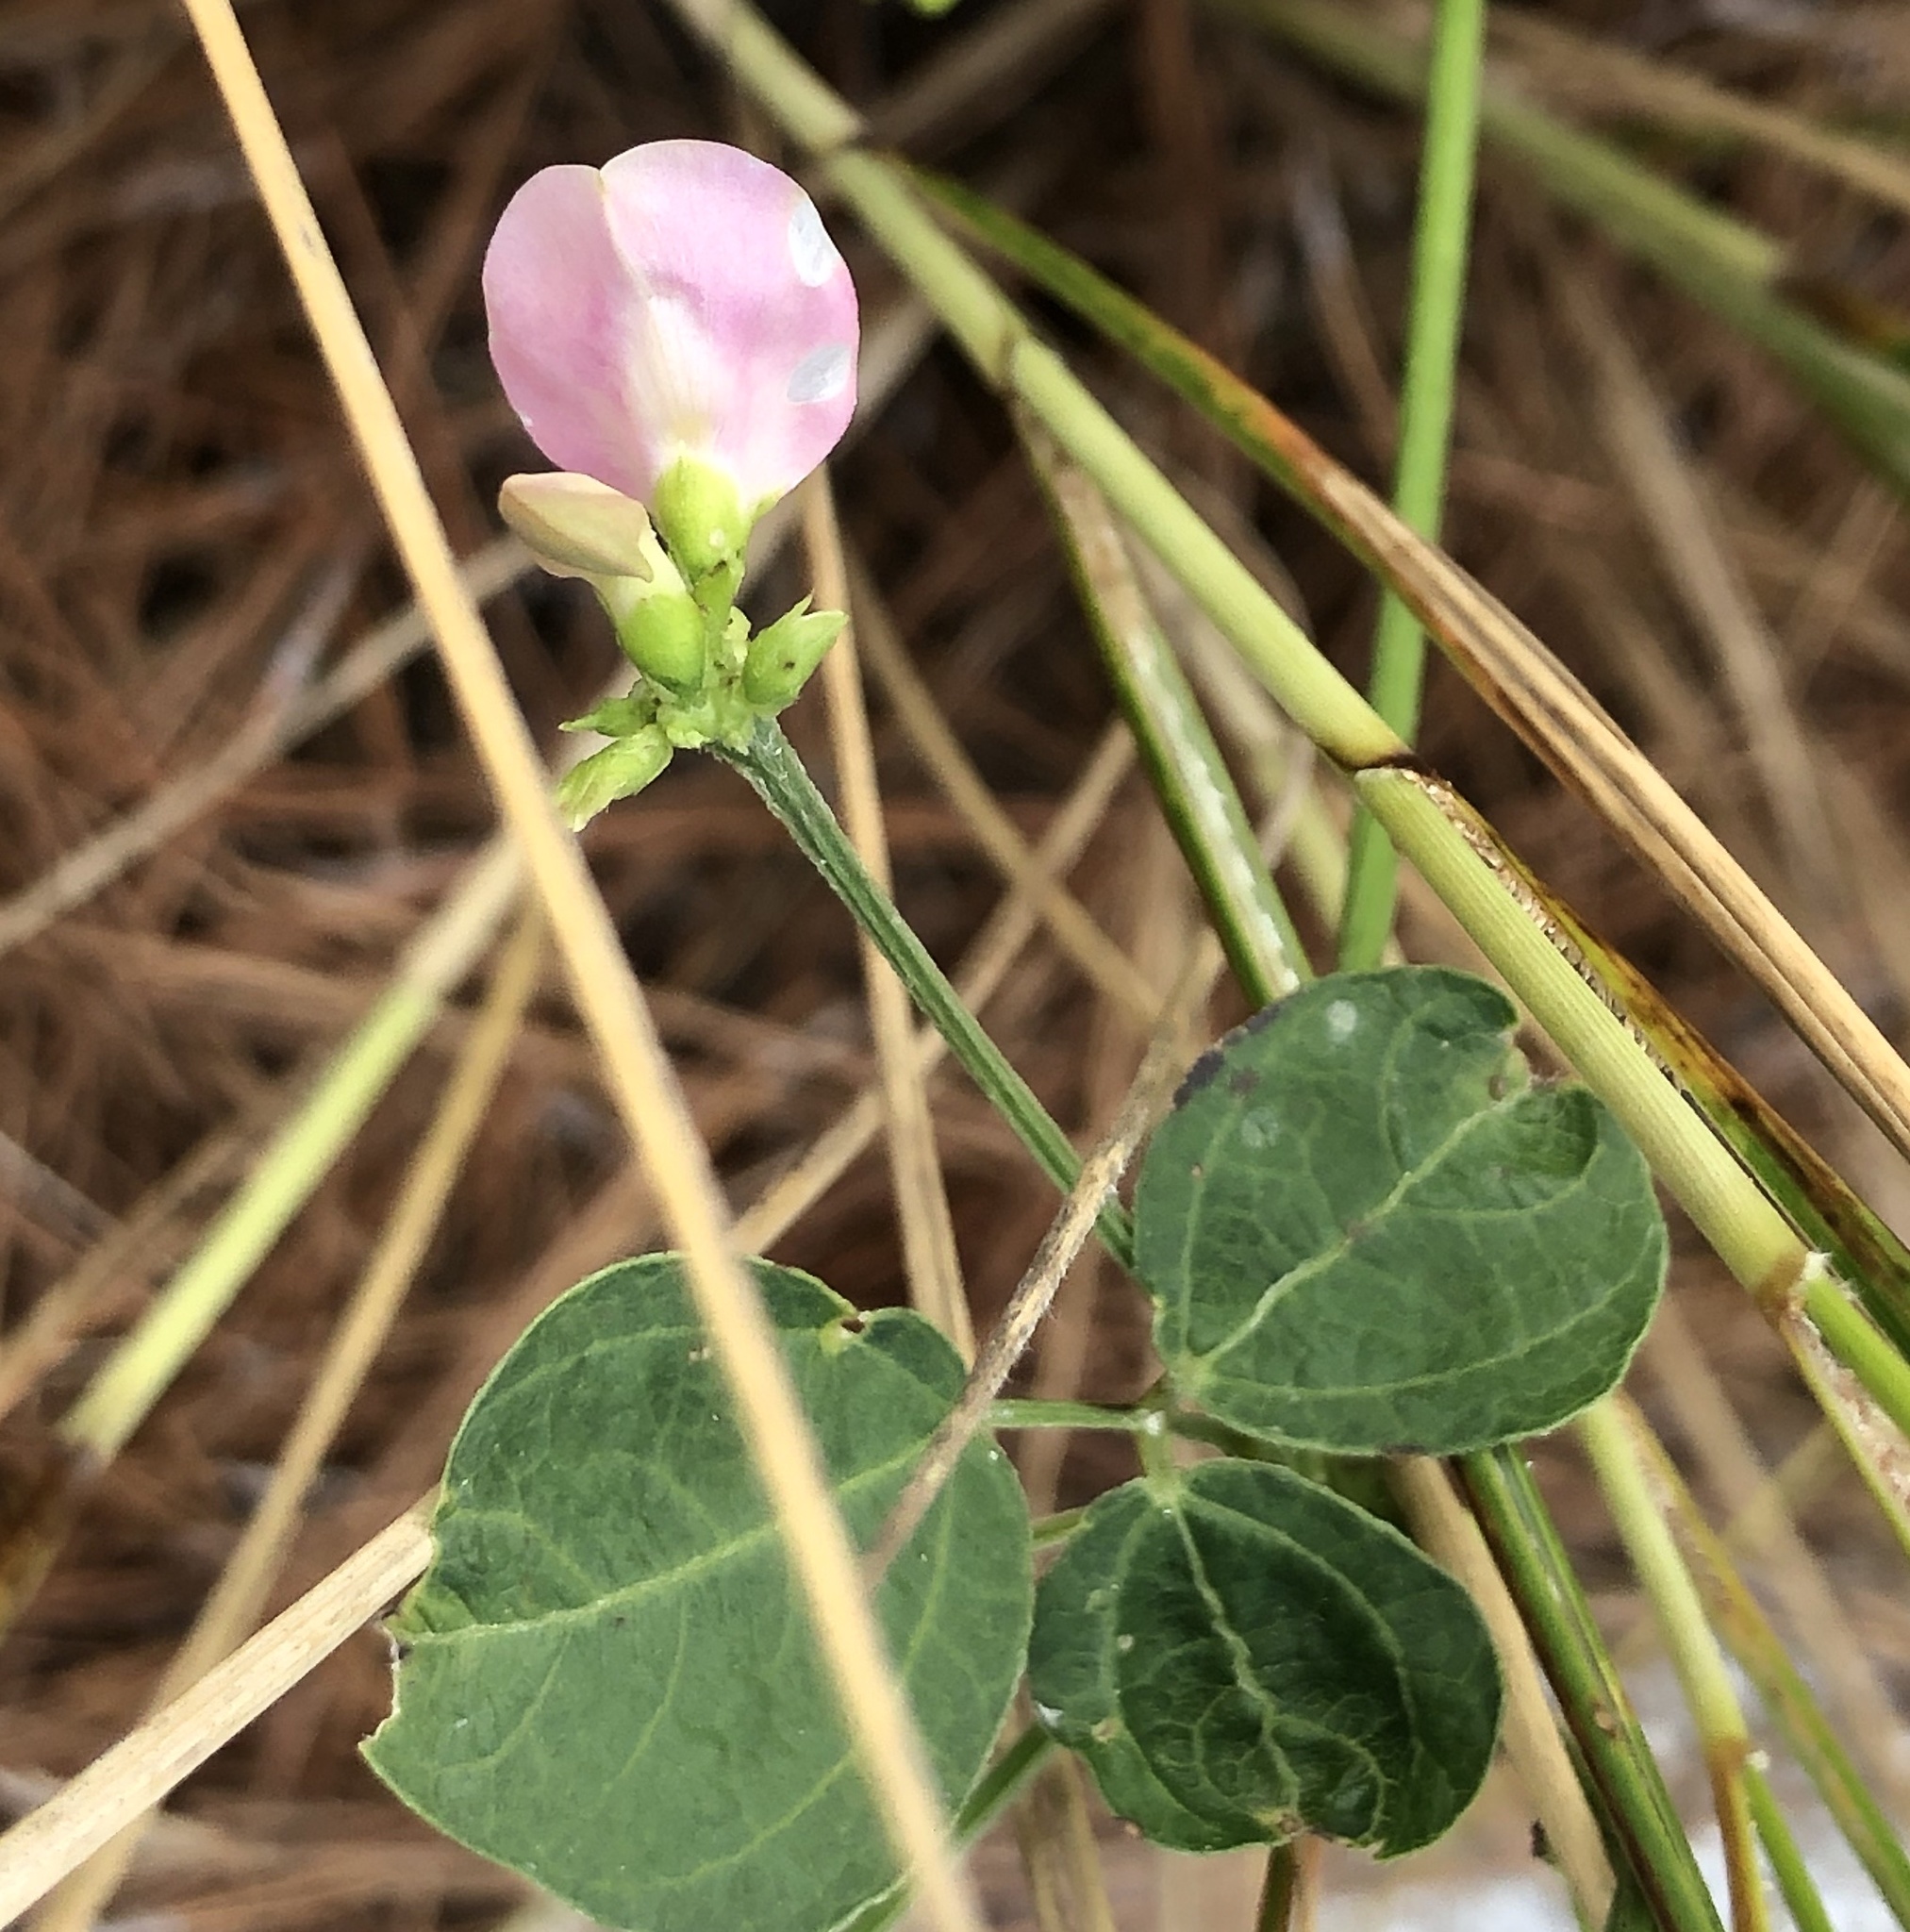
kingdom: Plantae
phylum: Tracheophyta
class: Magnoliopsida
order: Fabales
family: Fabaceae
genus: Strophostyles
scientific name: Strophostyles helvola
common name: Trailing wild bean
